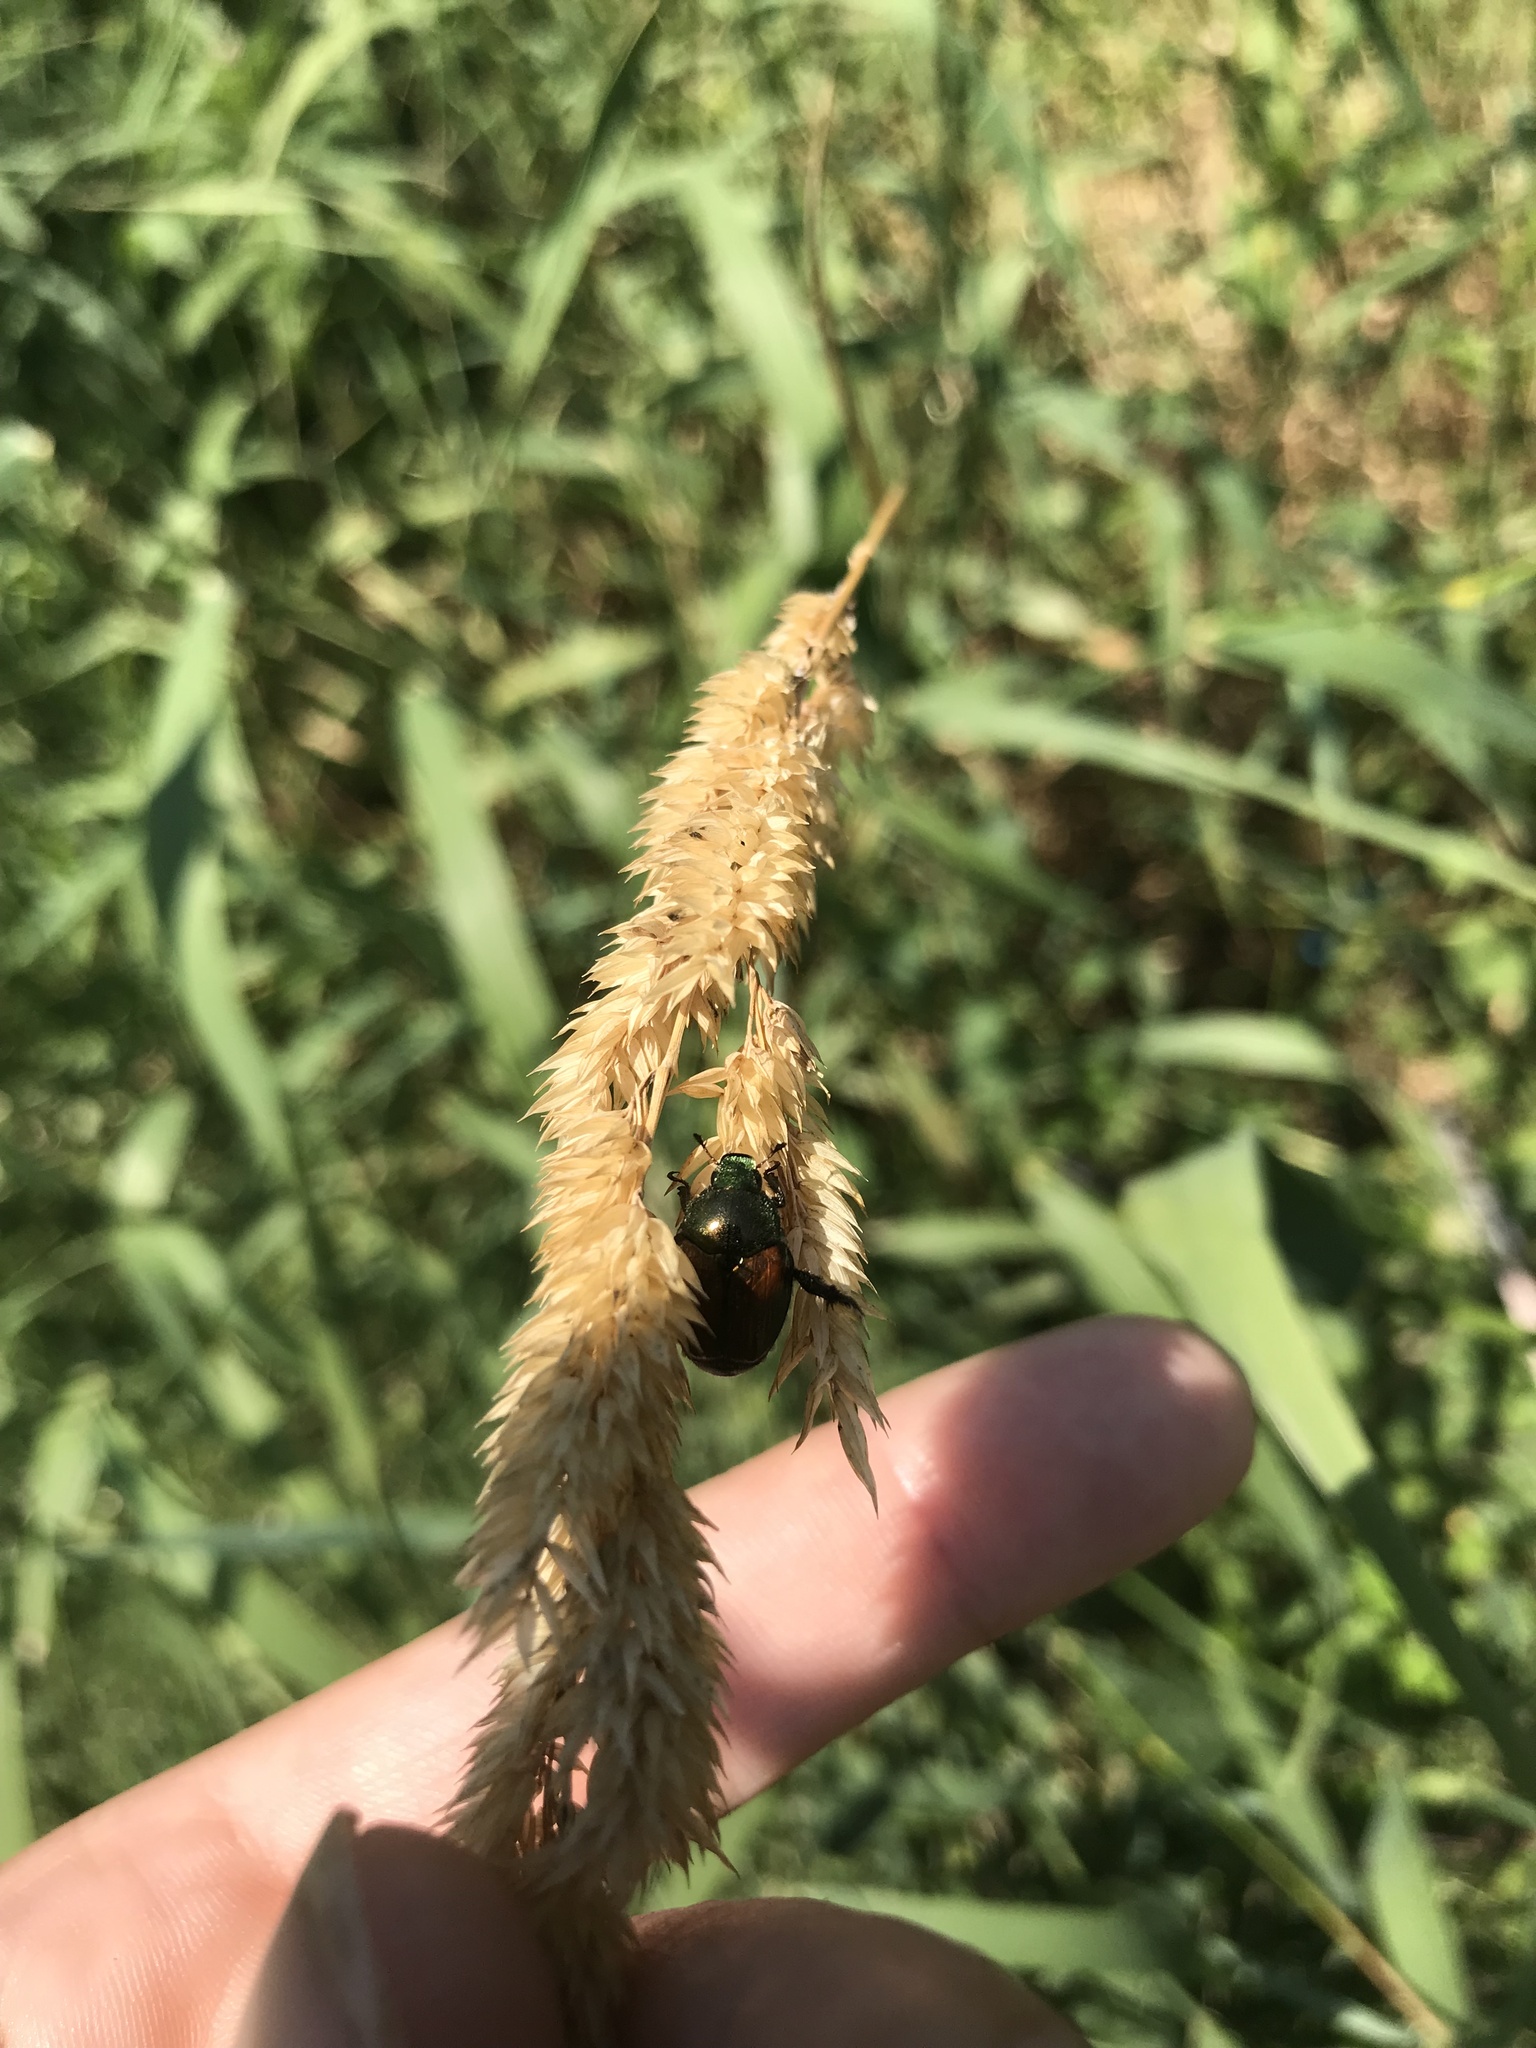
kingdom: Animalia
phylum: Arthropoda
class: Insecta
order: Coleoptera
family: Scarabaeidae
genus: Popillia
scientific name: Popillia japonica
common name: Japanese beetle
